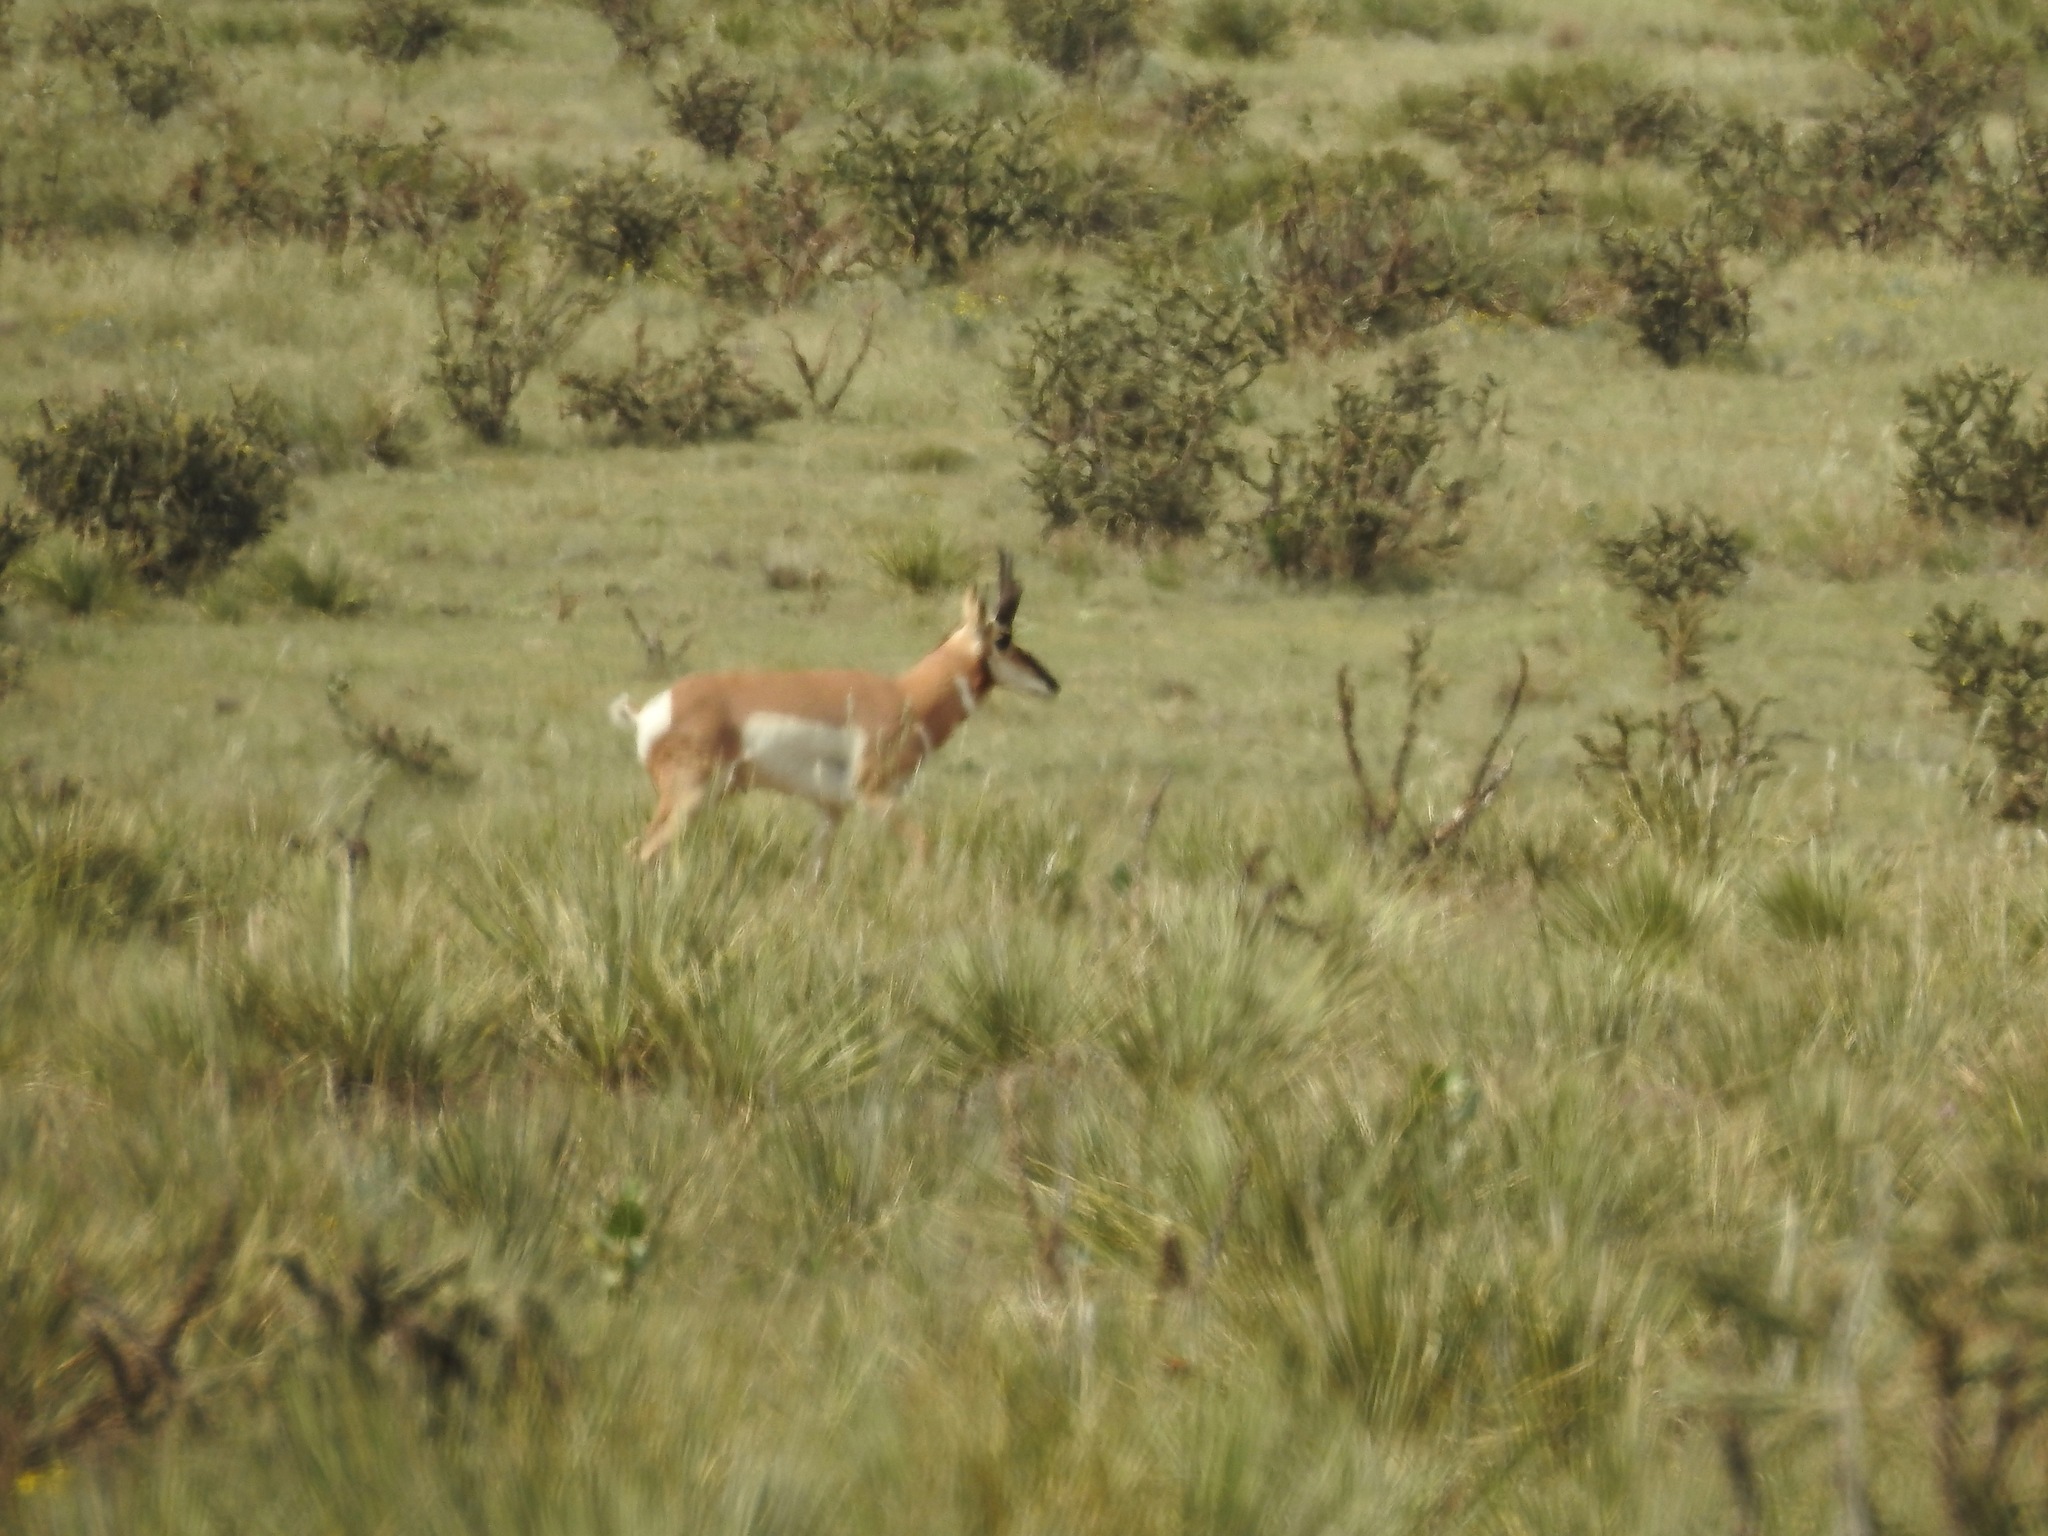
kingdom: Animalia
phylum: Chordata
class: Mammalia
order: Artiodactyla
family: Antilocapridae
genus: Antilocapra
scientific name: Antilocapra americana
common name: Pronghorn
